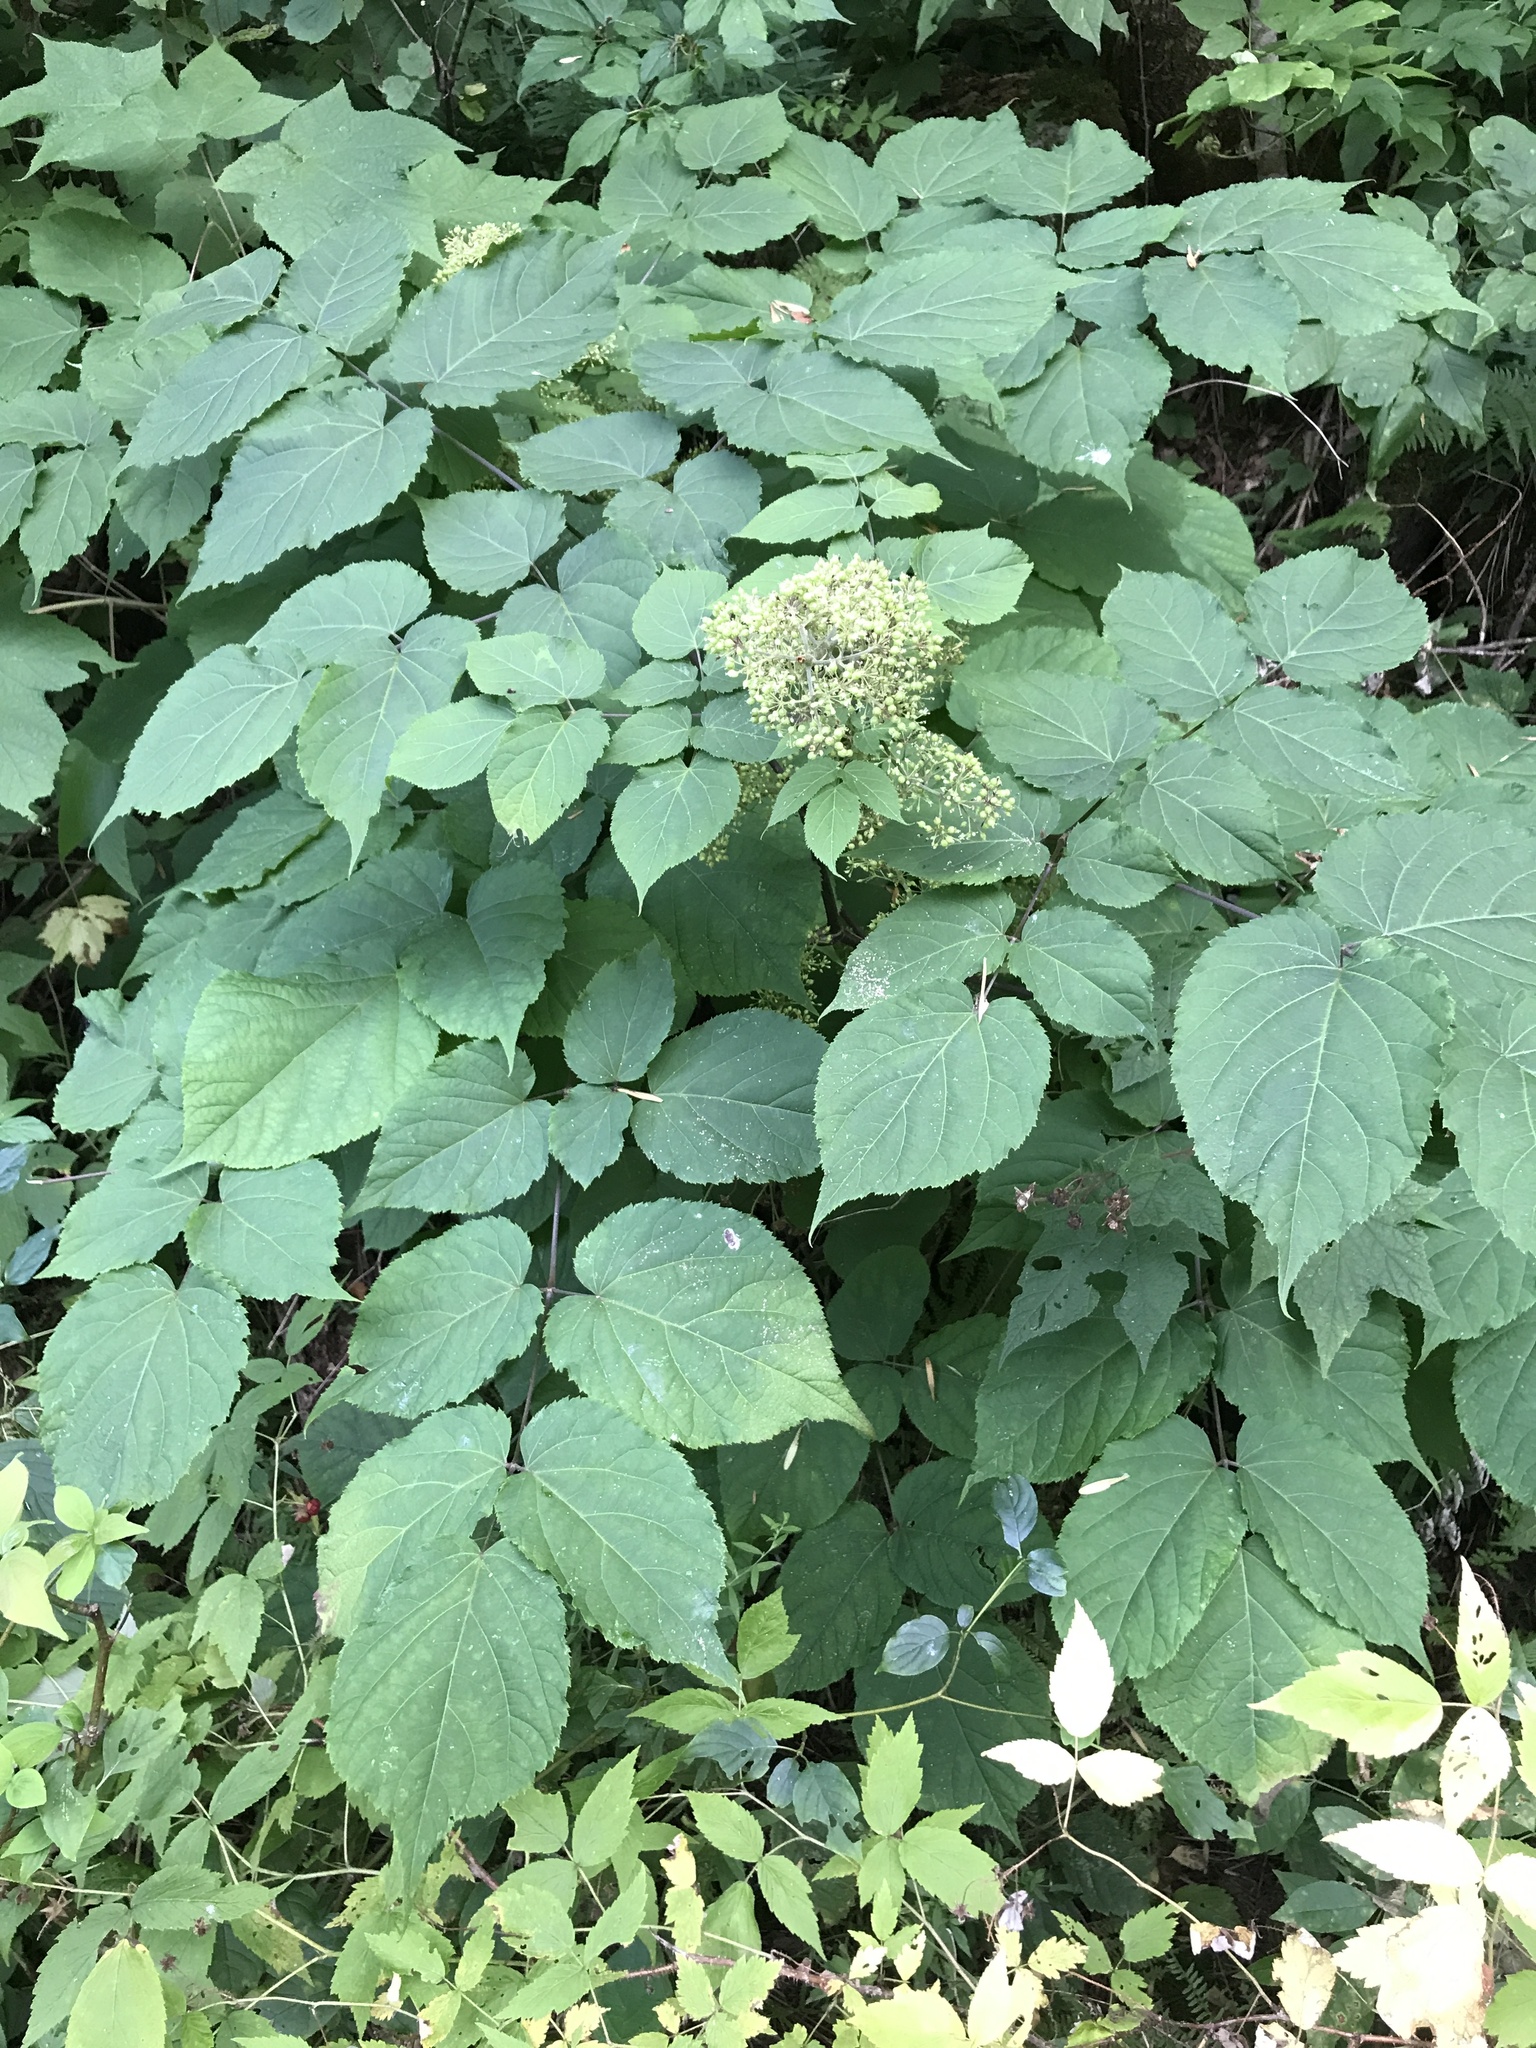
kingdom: Plantae
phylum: Tracheophyta
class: Magnoliopsida
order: Apiales
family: Araliaceae
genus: Aralia
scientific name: Aralia racemosa
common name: American-spikenard
